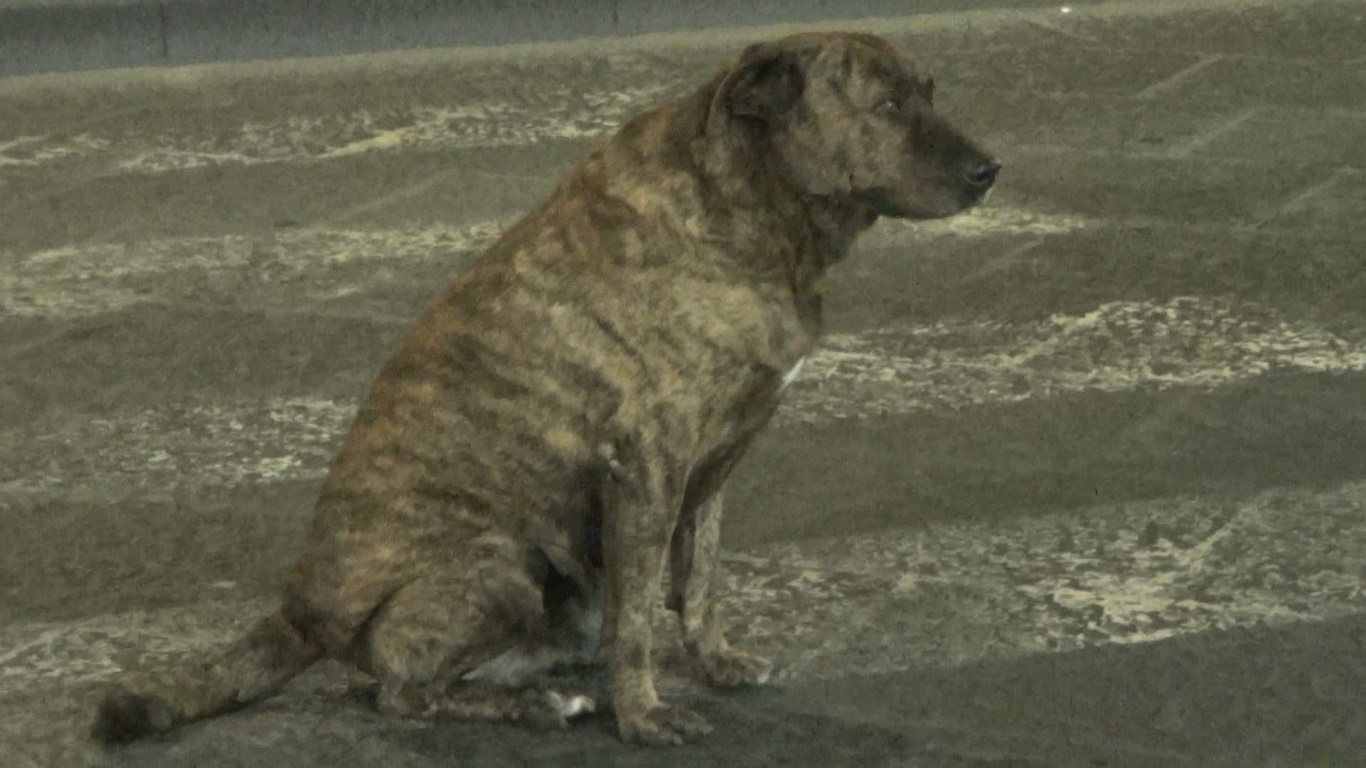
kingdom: Animalia
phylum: Chordata
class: Mammalia
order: Carnivora
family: Canidae
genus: Canis
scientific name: Canis lupus
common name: Gray wolf
